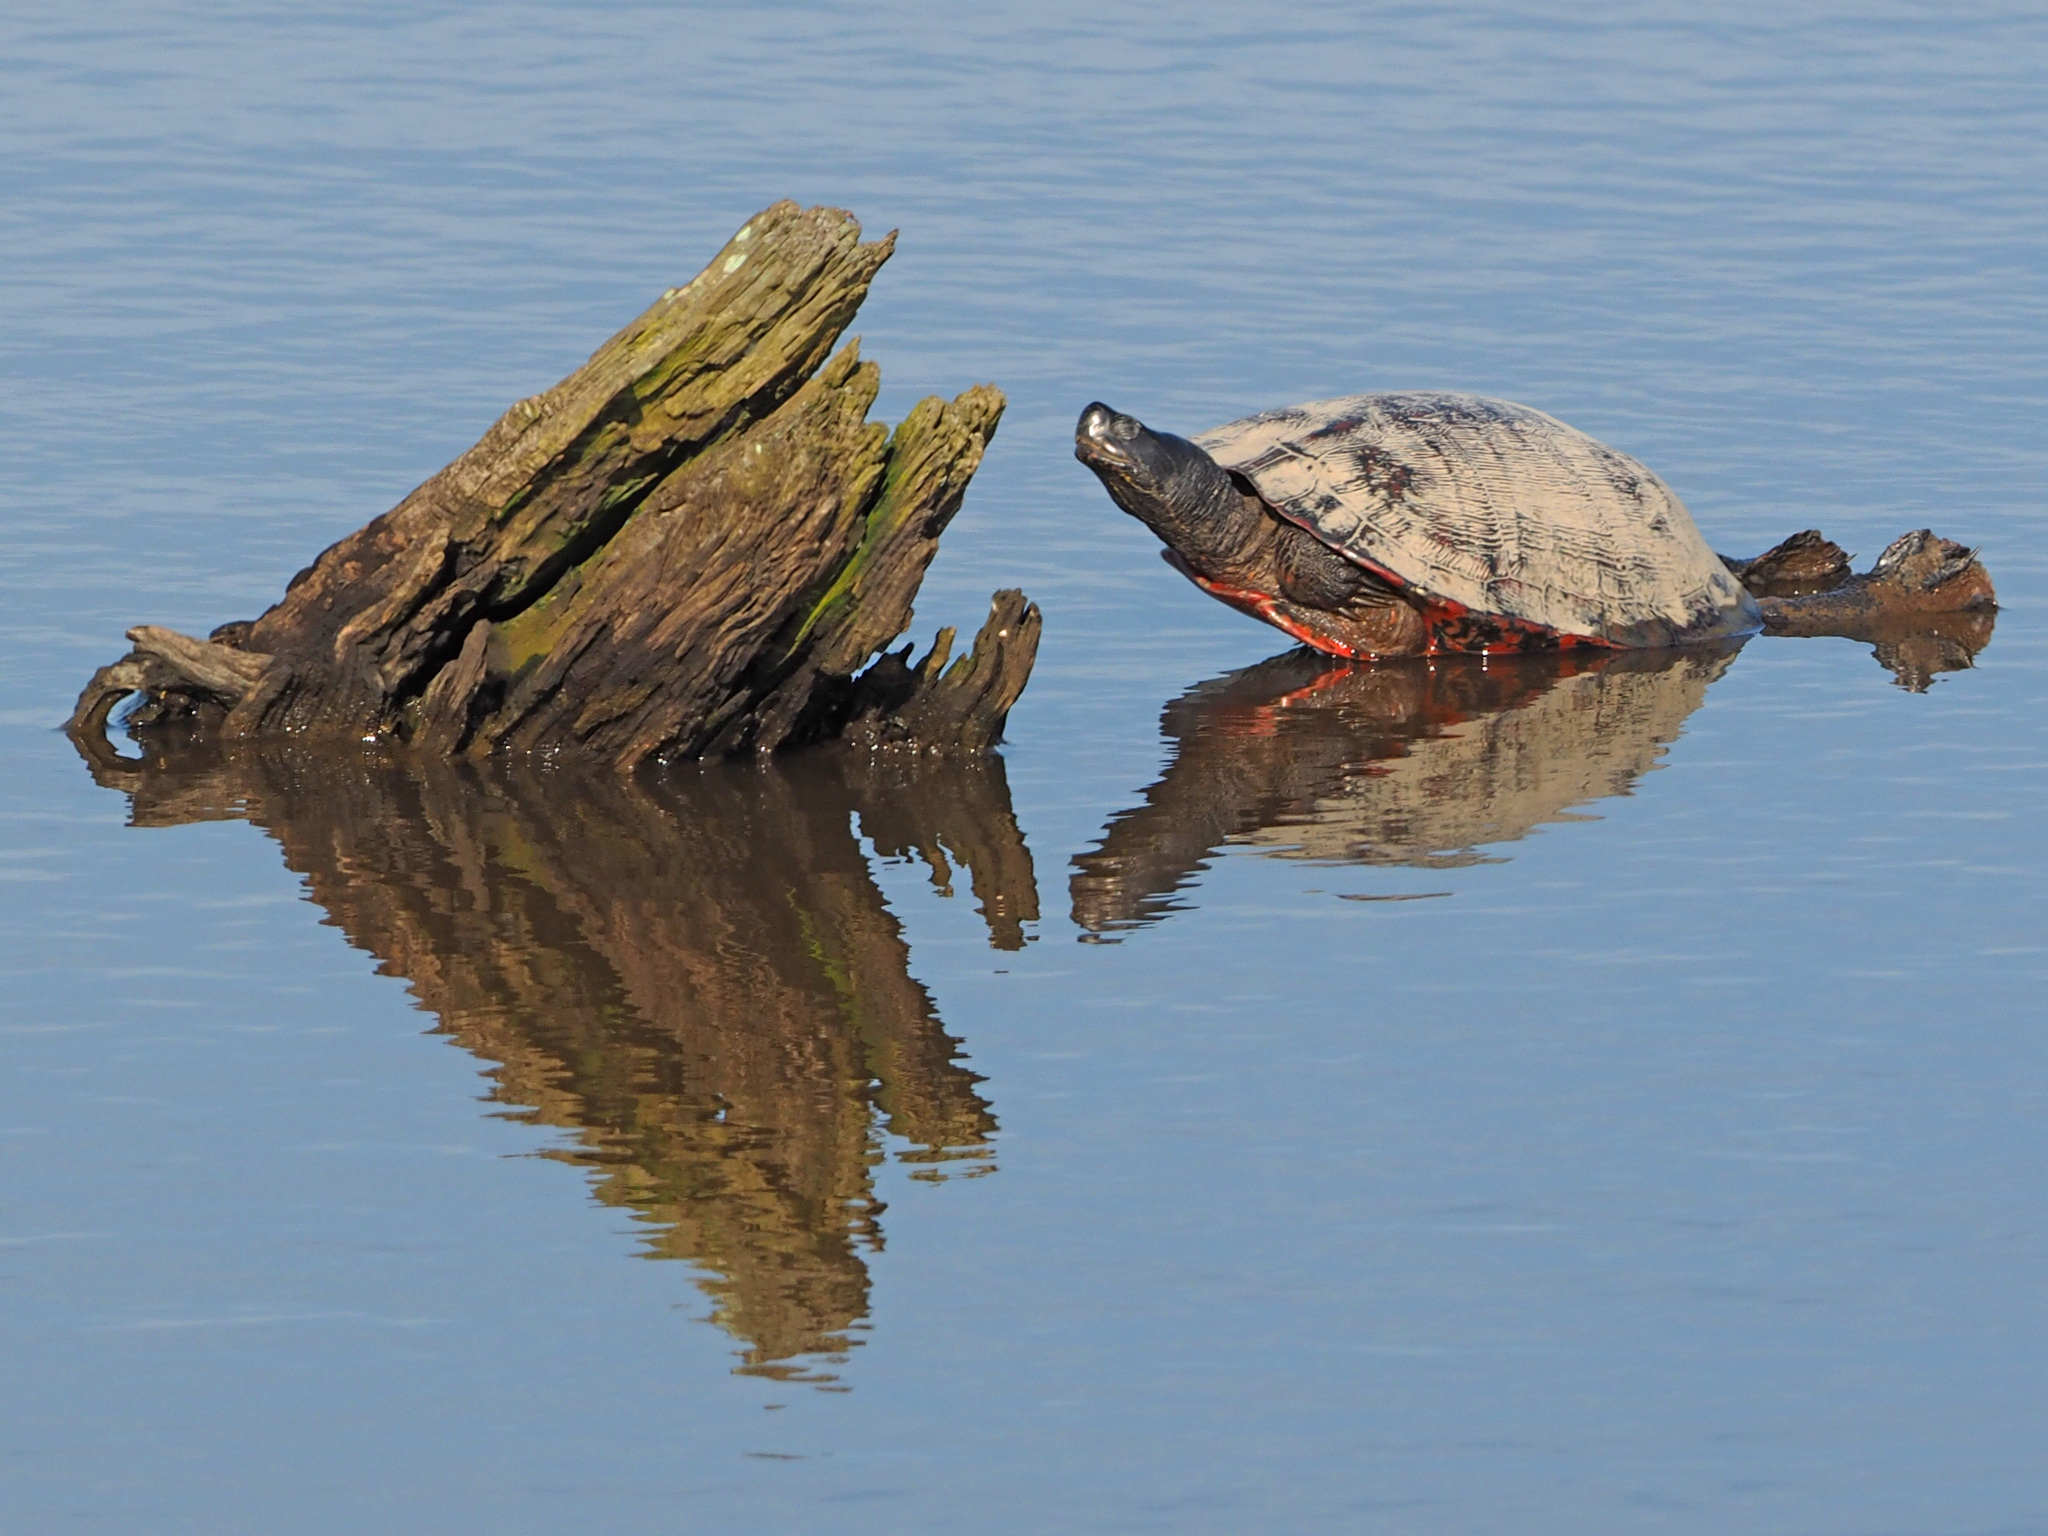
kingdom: Animalia
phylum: Chordata
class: Testudines
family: Emydidae
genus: Pseudemys
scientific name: Pseudemys rubriventris
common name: American red-bellied turtle
